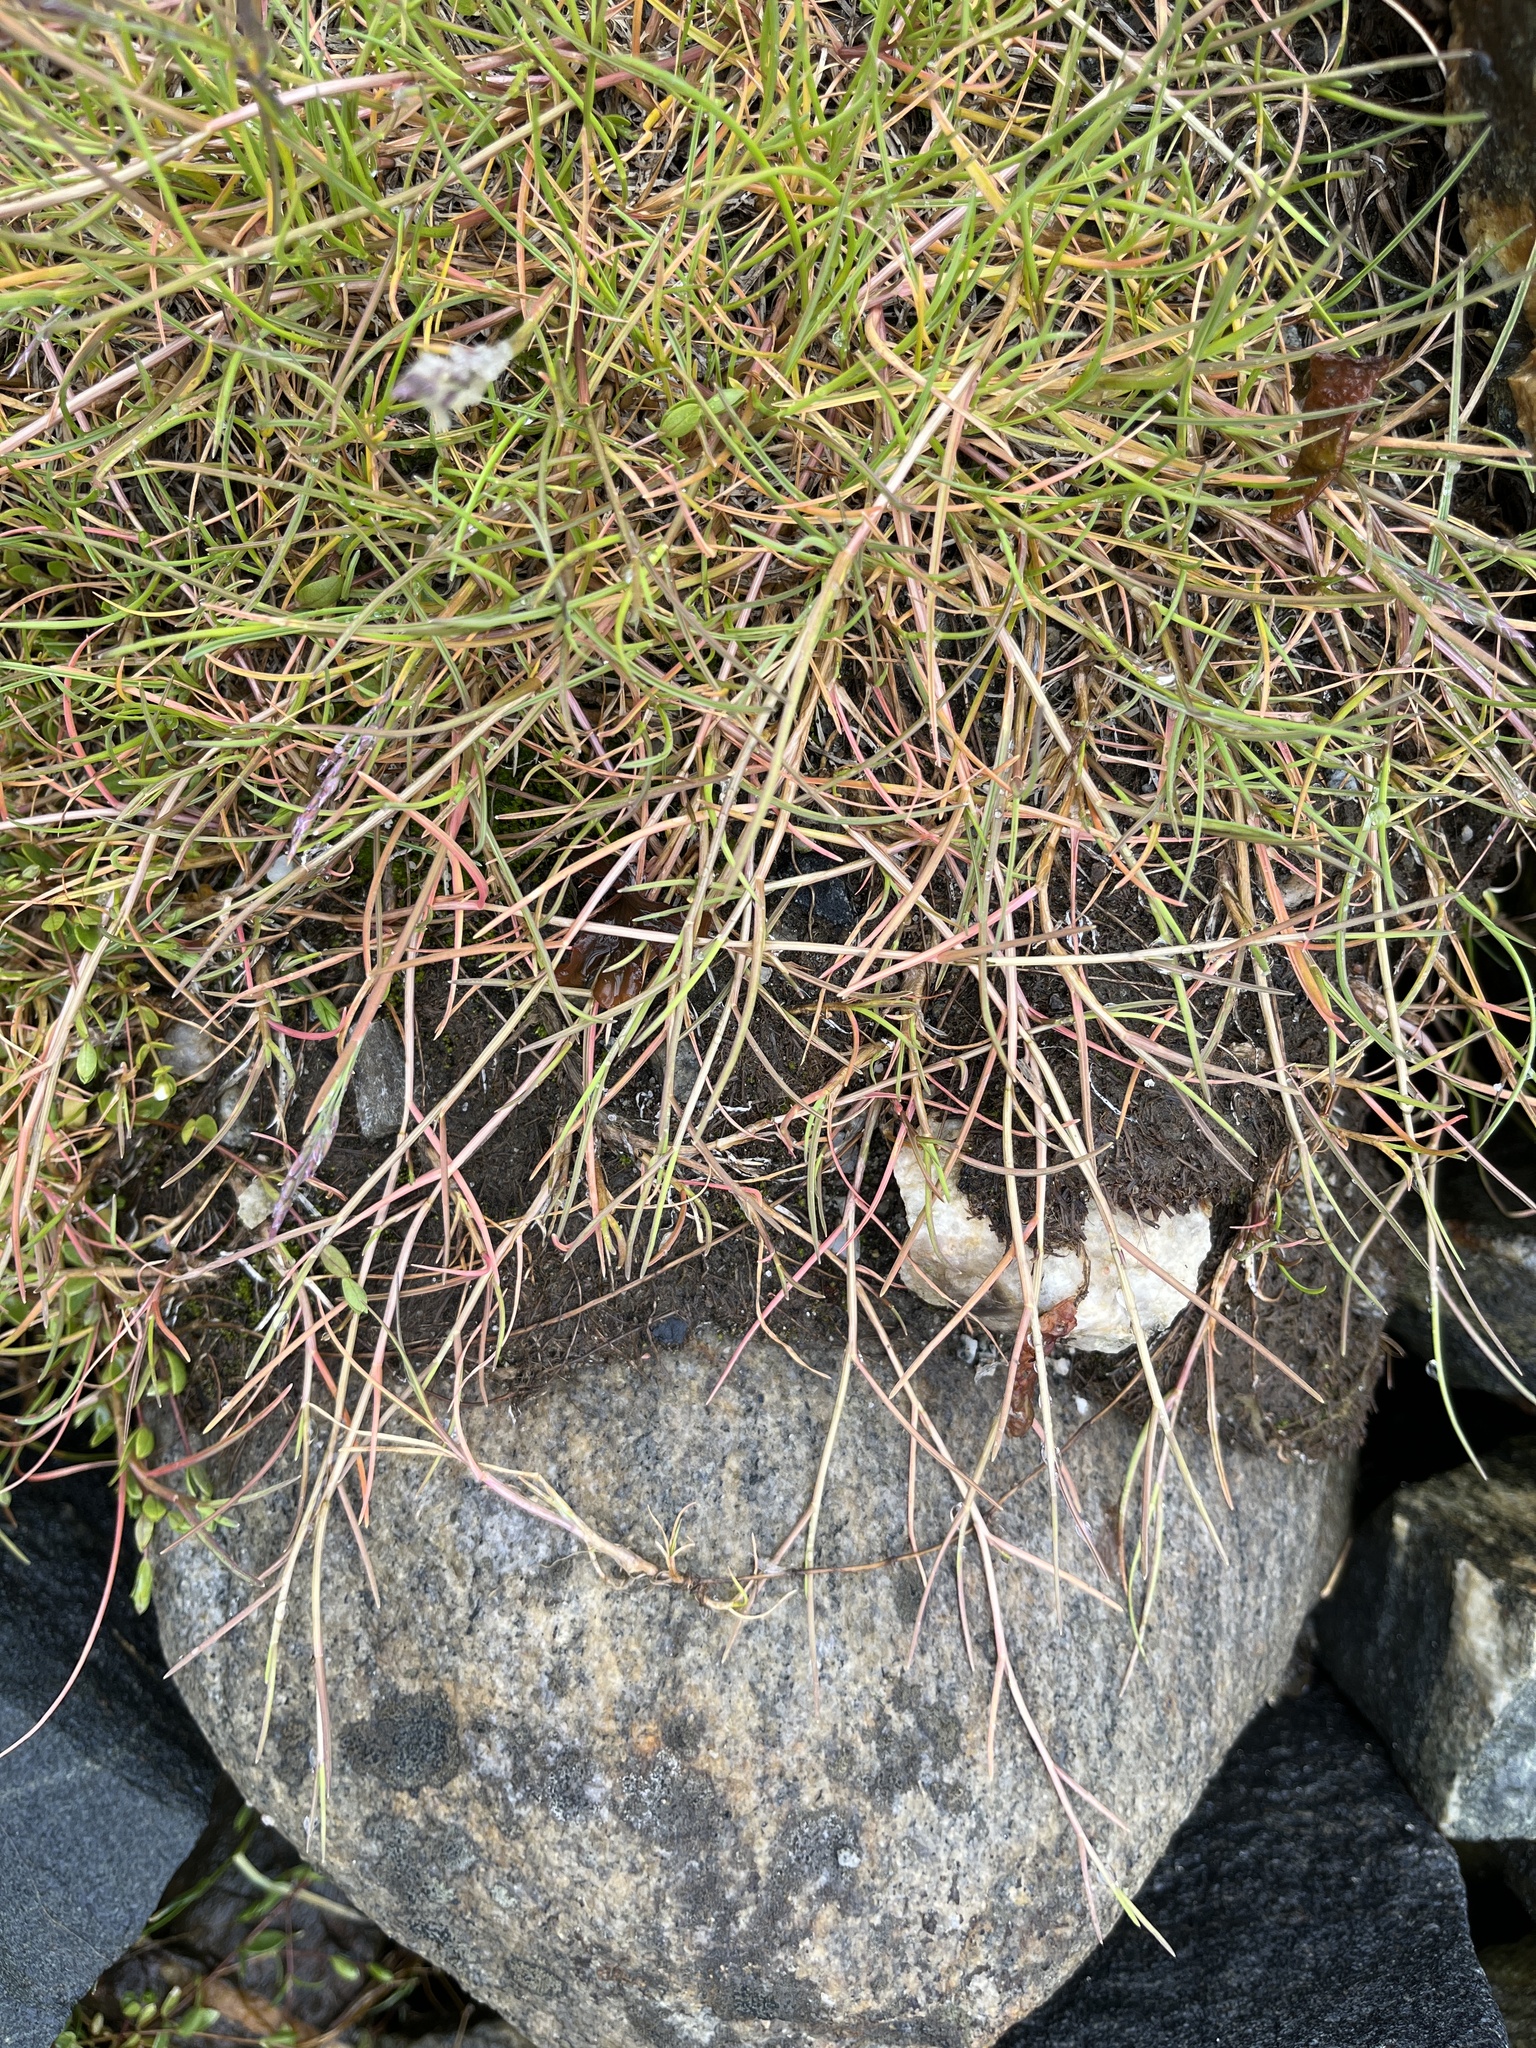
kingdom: Plantae
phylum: Tracheophyta
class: Liliopsida
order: Poales
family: Poaceae
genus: Puccinellia
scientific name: Puccinellia phryganodes
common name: Creeping alkaligrass
